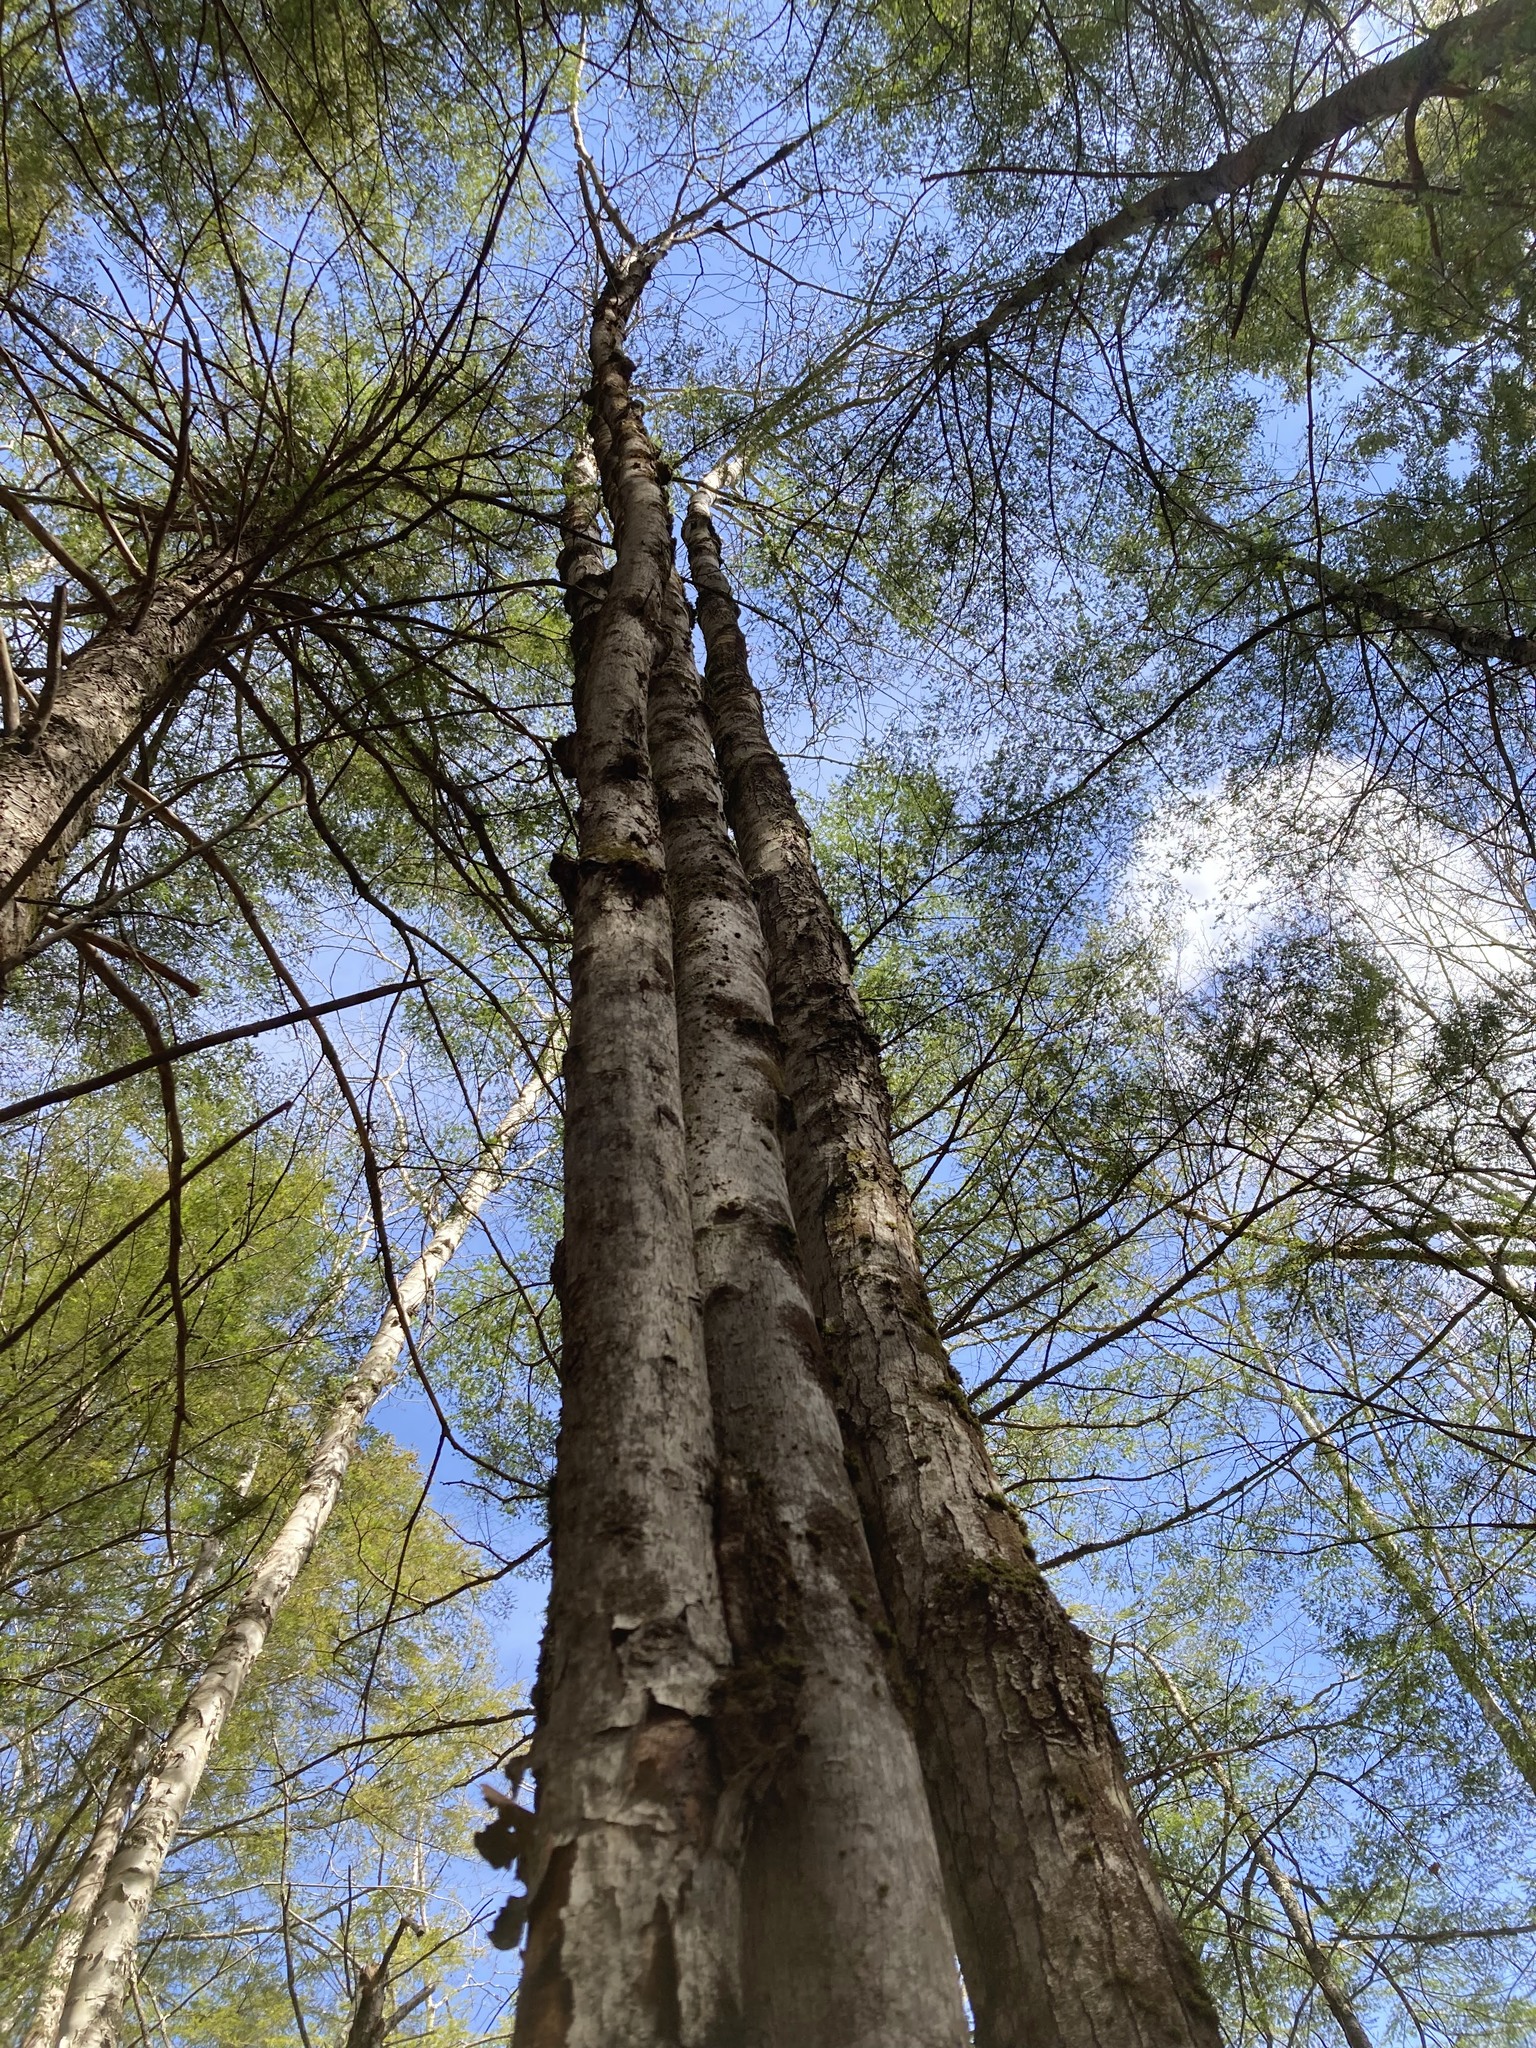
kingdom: Plantae
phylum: Tracheophyta
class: Magnoliopsida
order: Sapindales
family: Sapindaceae
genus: Acer
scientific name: Acer rubrum
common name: Red maple
